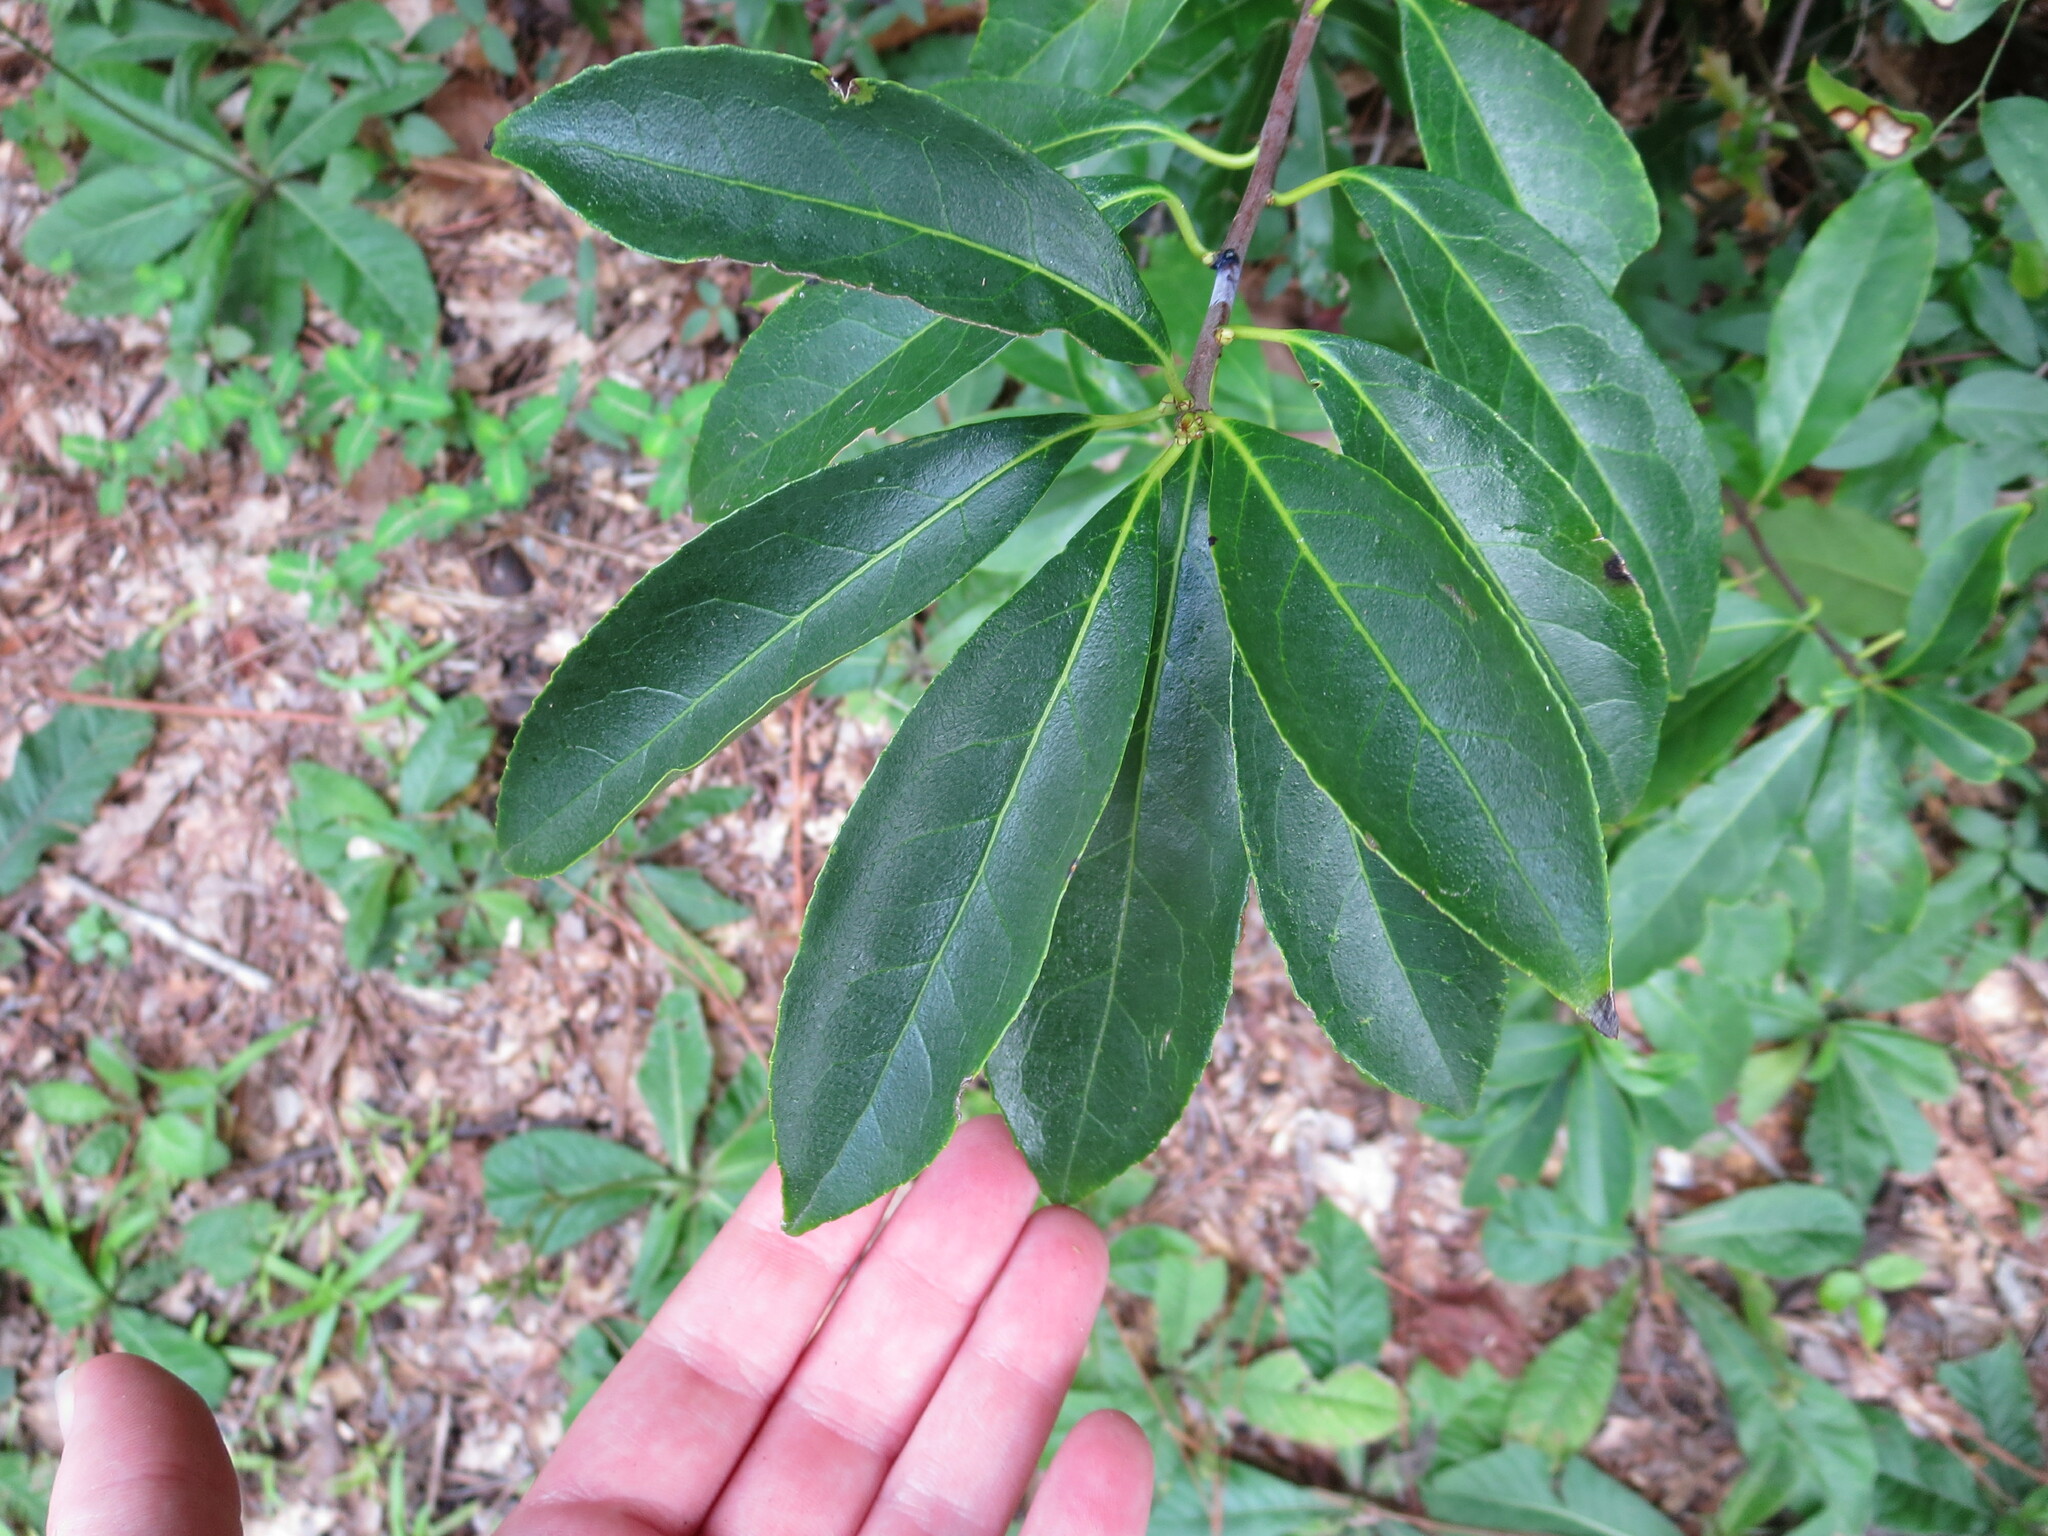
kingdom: Plantae
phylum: Tracheophyta
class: Magnoliopsida
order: Ericales
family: Symplocaceae
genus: Symplocos
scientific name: Symplocos tinctoria
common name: Horse-sugar
